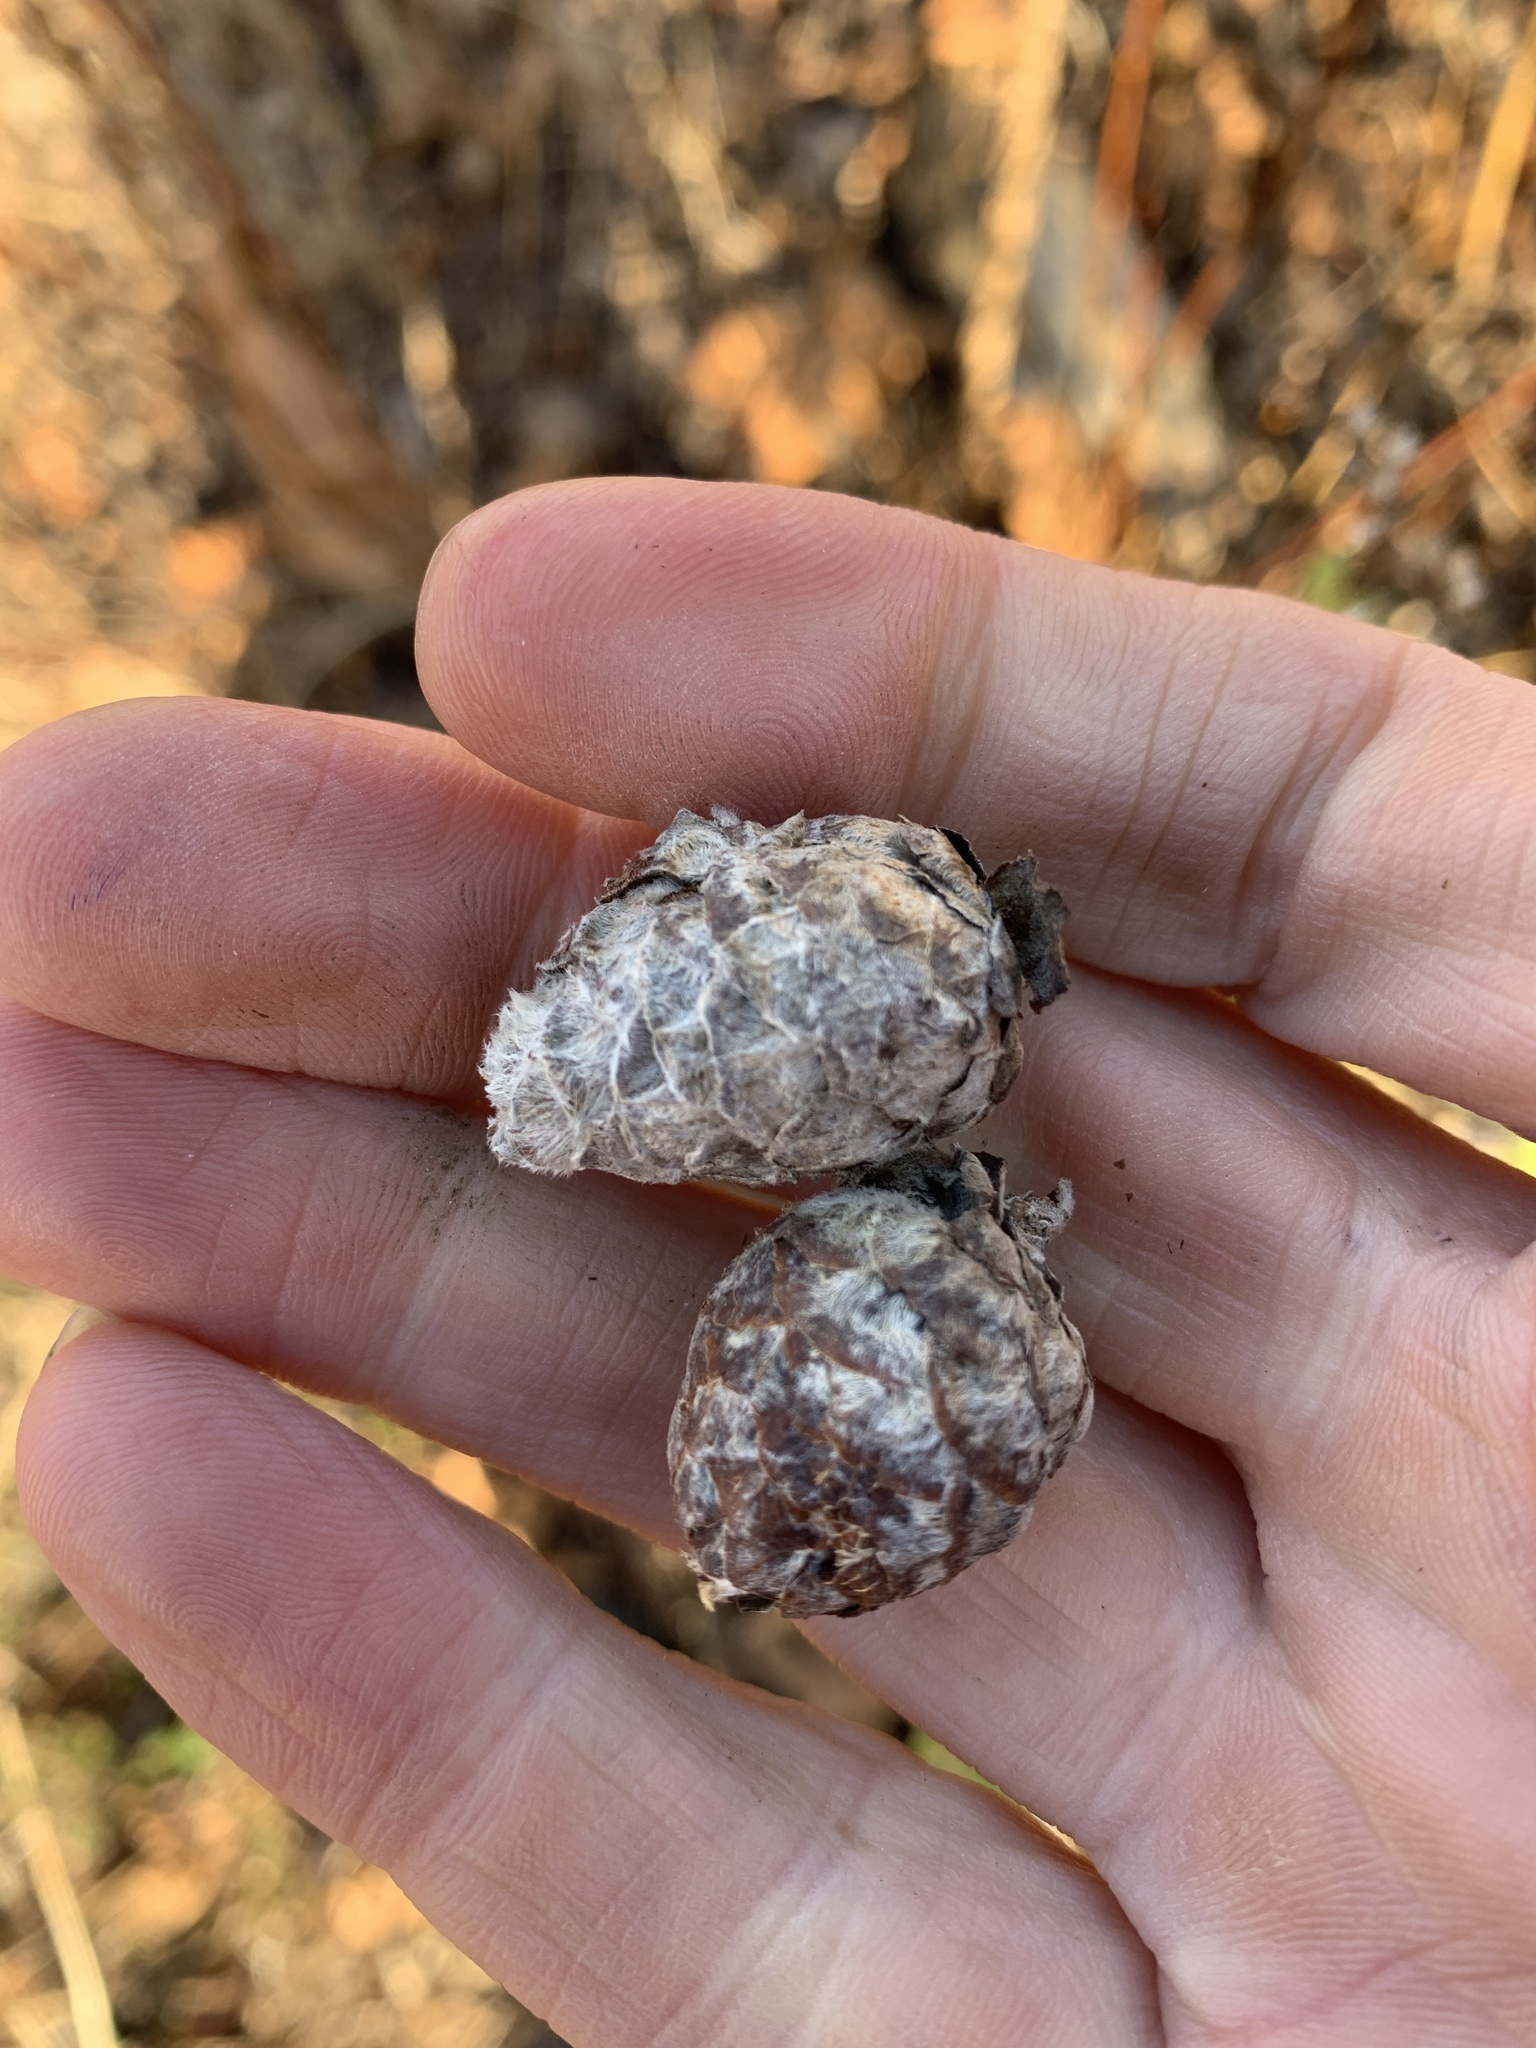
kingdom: Animalia
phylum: Arthropoda
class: Insecta
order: Diptera
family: Cecidomyiidae
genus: Rabdophaga
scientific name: Rabdophaga strobiloides
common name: Willow pinecone gall midge
